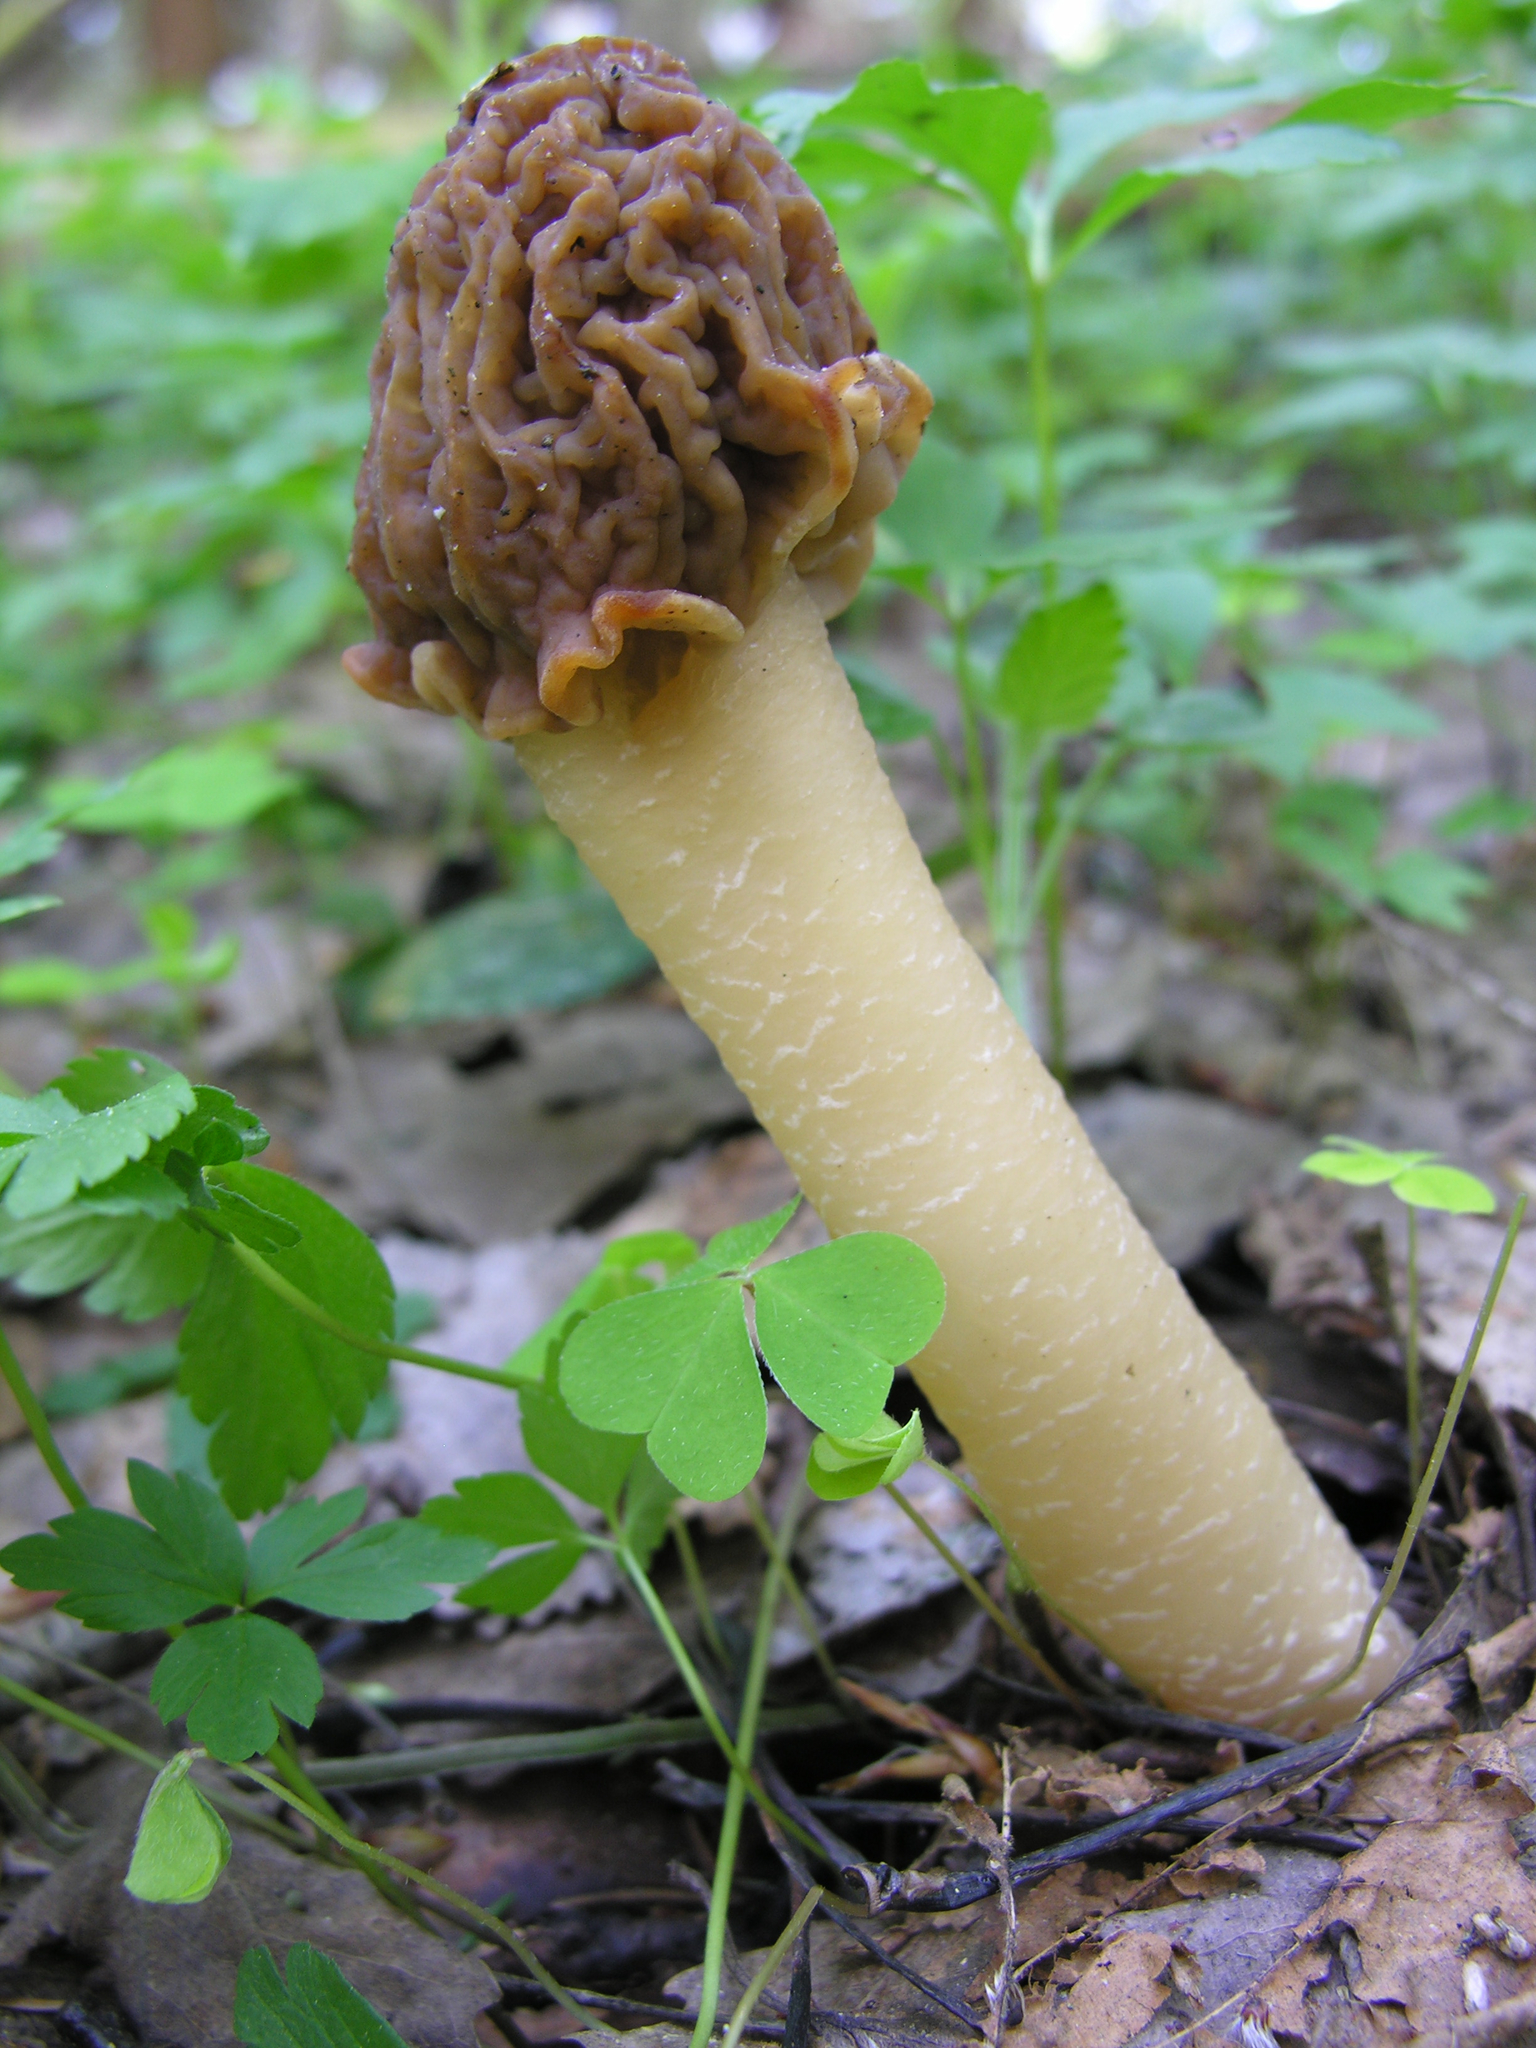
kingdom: Fungi
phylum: Ascomycota
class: Pezizomycetes
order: Pezizales
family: Morchellaceae
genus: Verpa
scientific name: Verpa bohemica
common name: Wrinkled thimble morel
